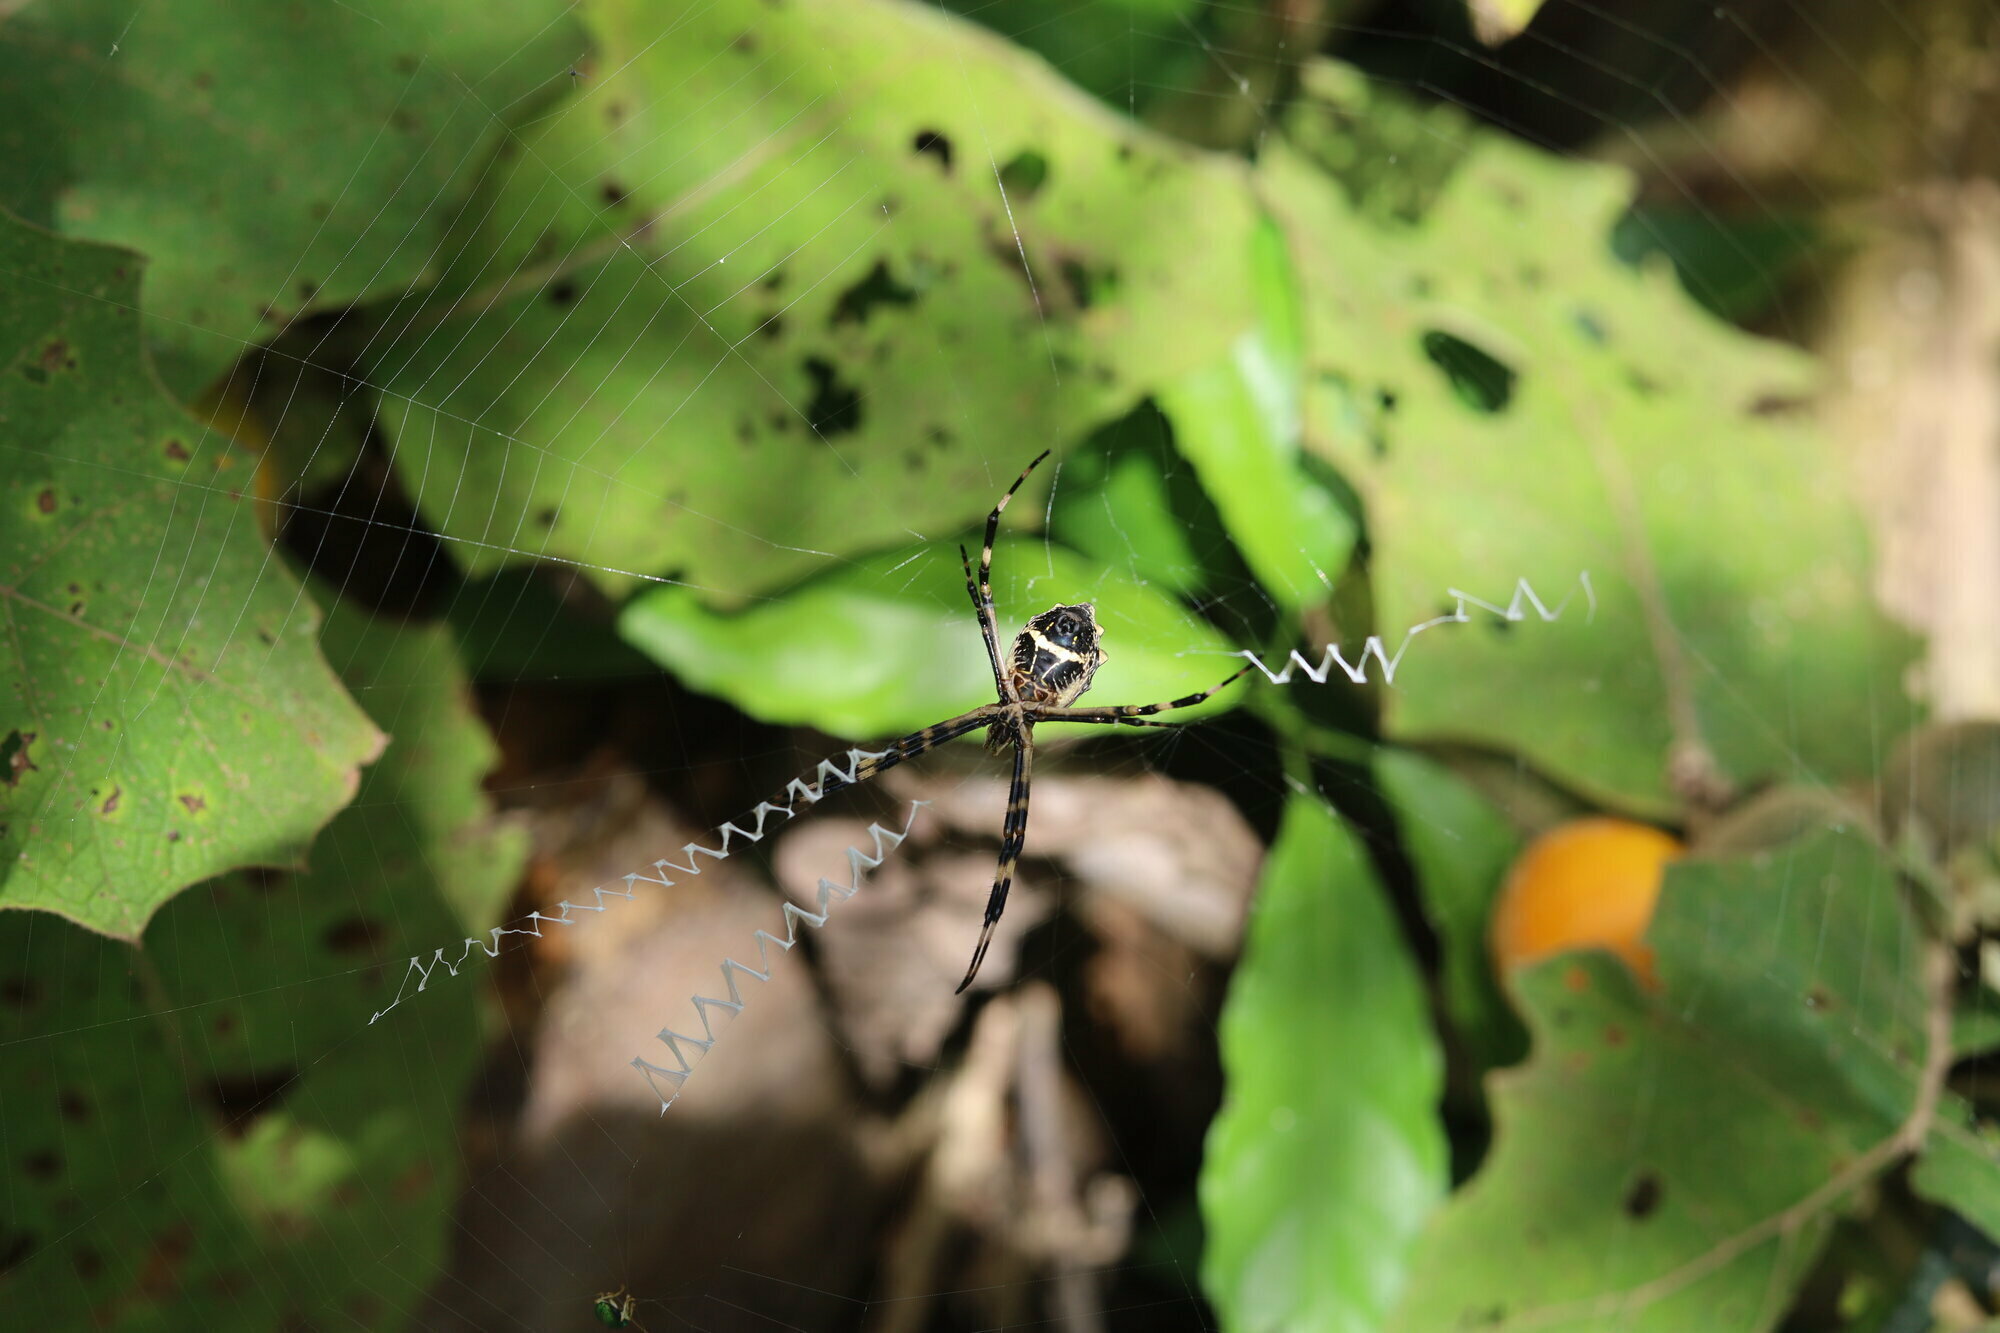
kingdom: Animalia
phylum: Arthropoda
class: Arachnida
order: Araneae
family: Araneidae
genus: Argiope
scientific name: Argiope argentata
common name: Orb weavers
